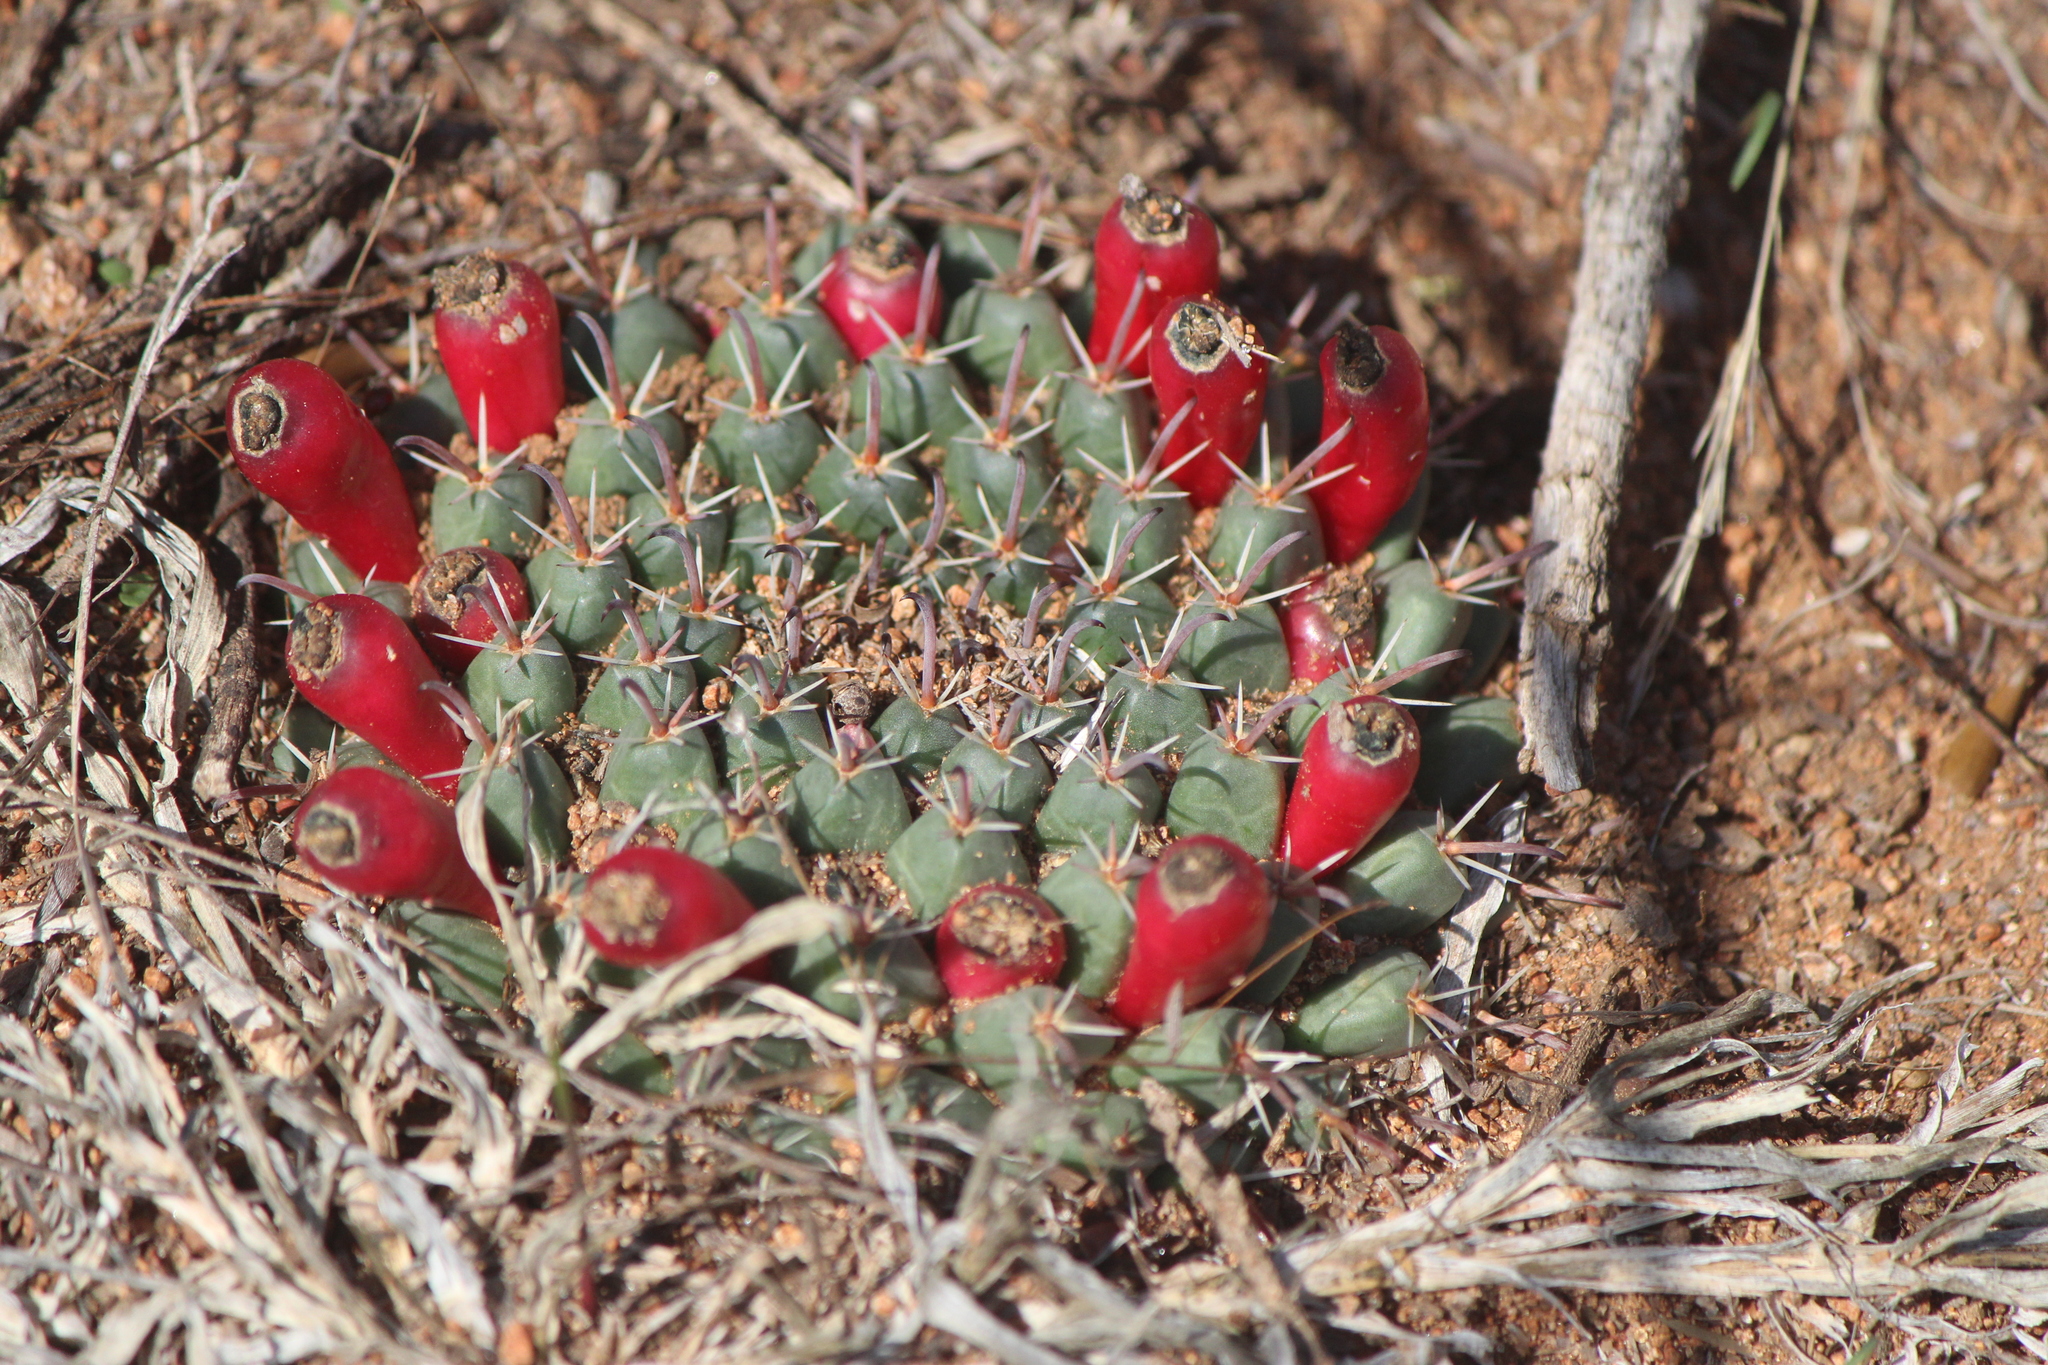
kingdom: Plantae
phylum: Tracheophyta
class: Magnoliopsida
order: Caryophyllales
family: Cactaceae
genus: Mammillaria
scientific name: Mammillaria uncinata
